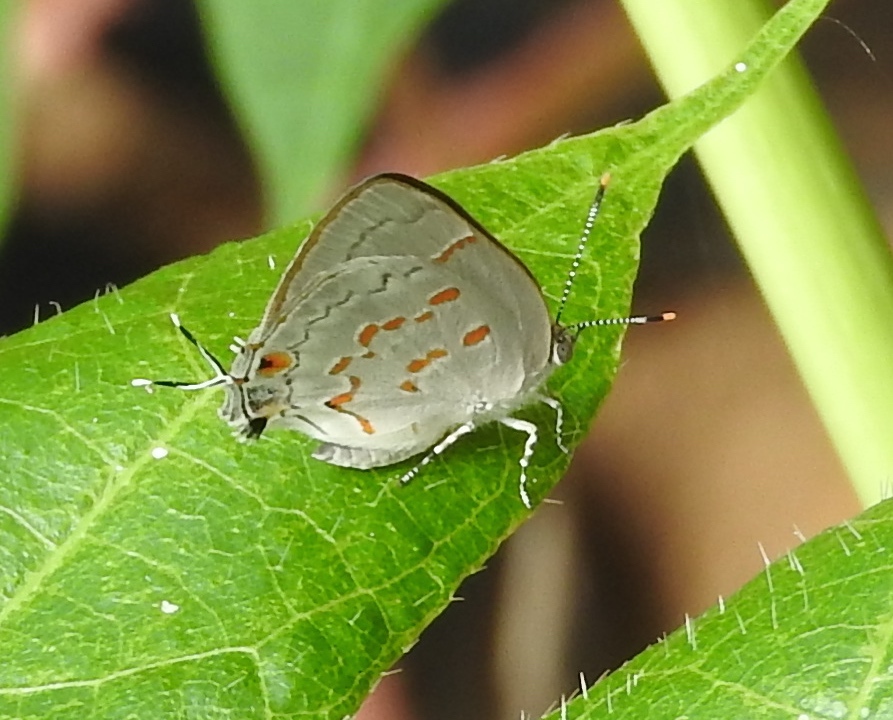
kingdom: Animalia
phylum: Arthropoda
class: Insecta
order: Lepidoptera
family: Lycaenidae
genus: Tmolus
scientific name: Tmolus echion
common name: Red-spotted hairstreak
